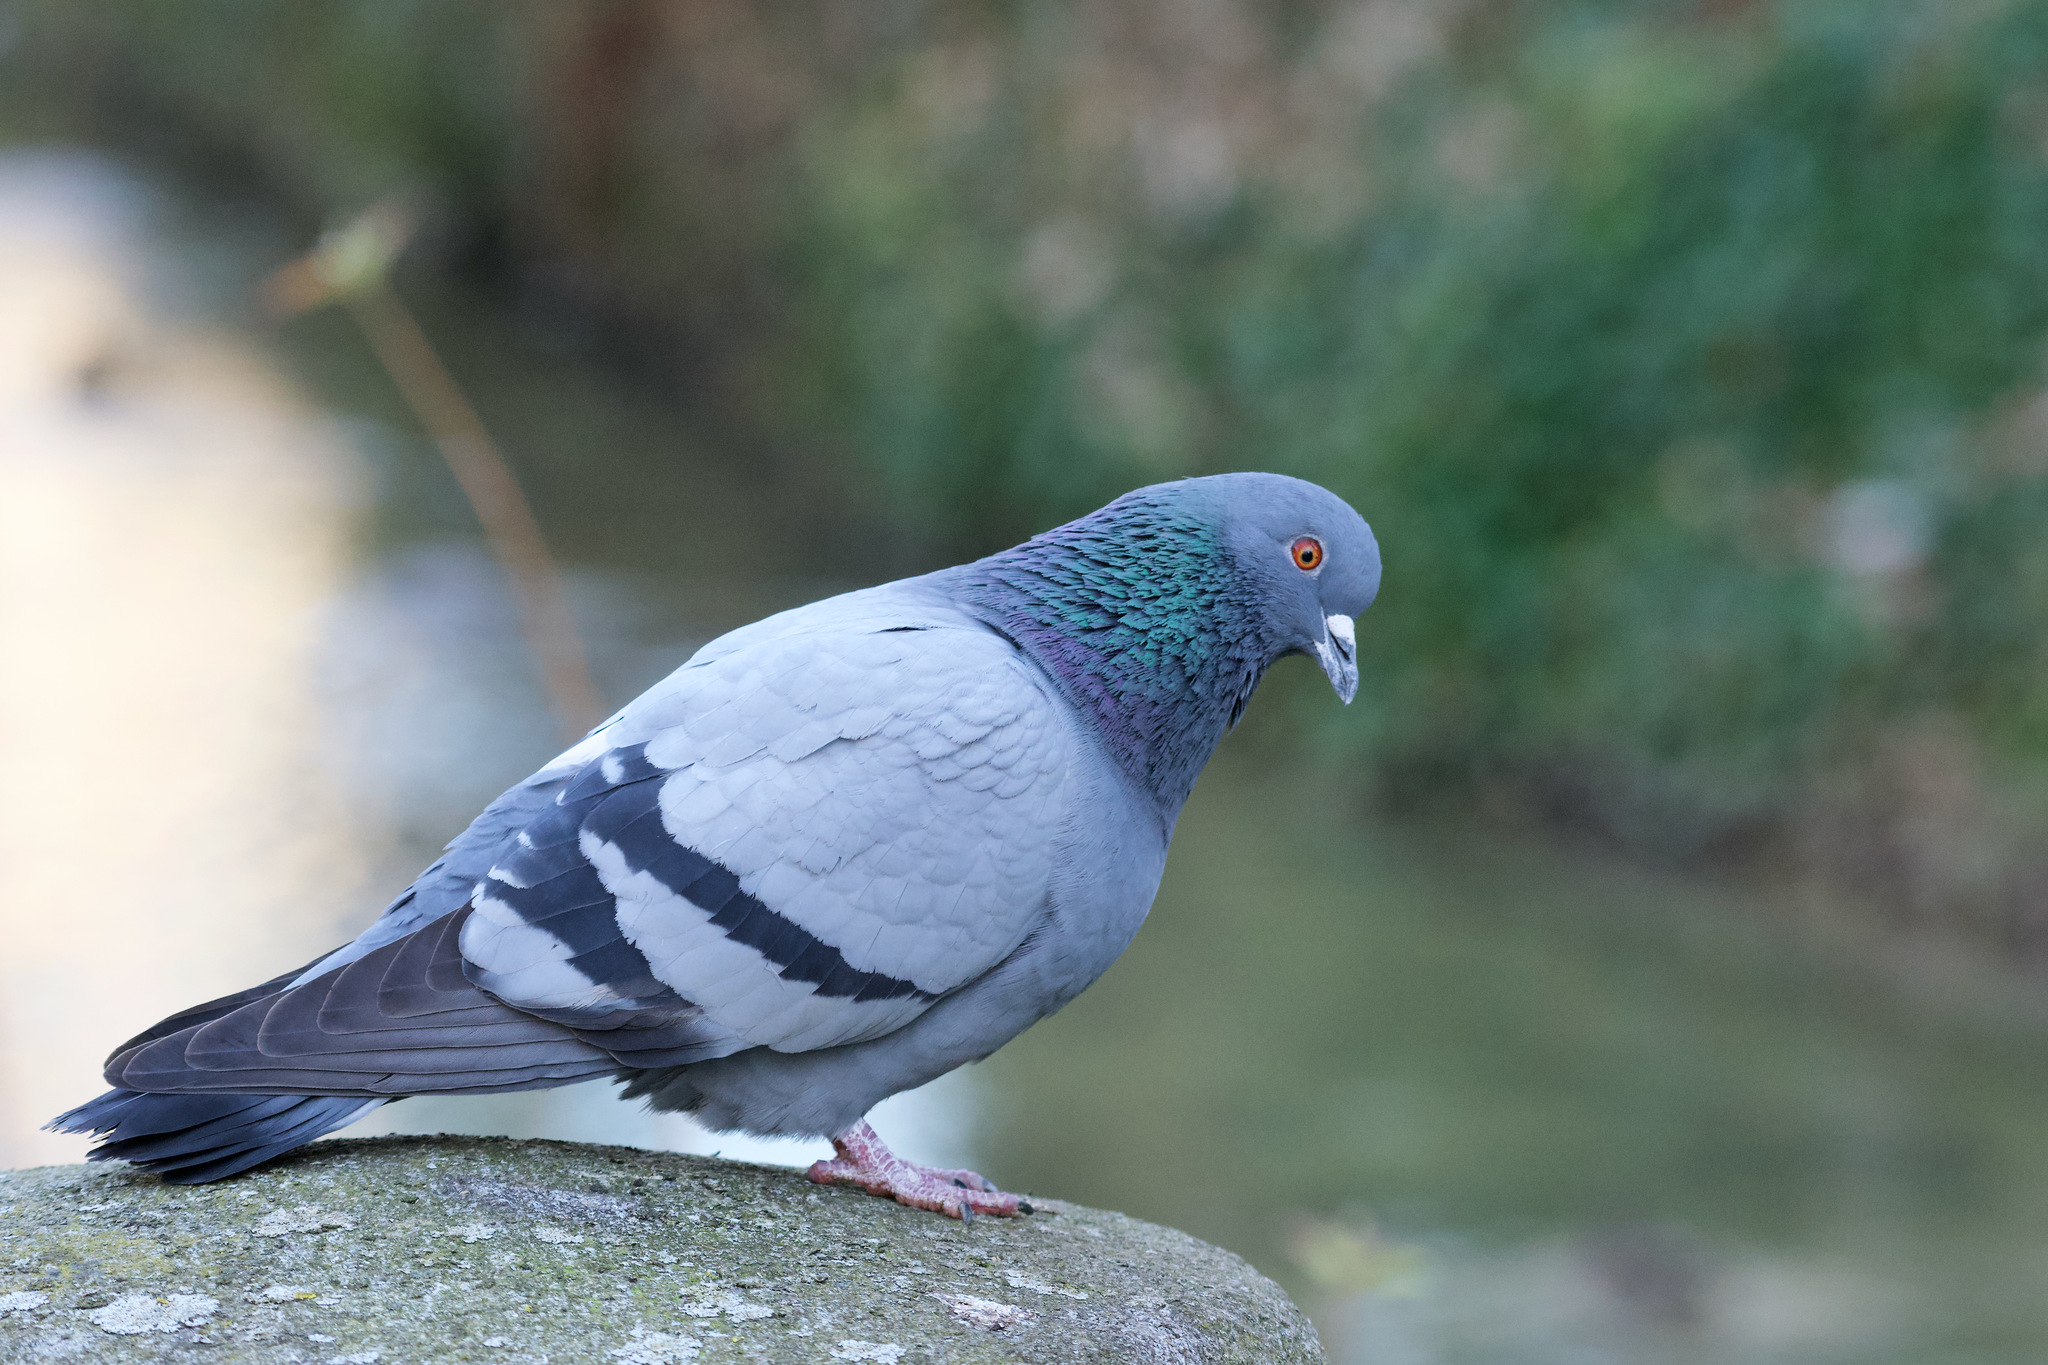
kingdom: Animalia
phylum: Chordata
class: Aves
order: Columbiformes
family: Columbidae
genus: Columba
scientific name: Columba livia
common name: Rock pigeon
